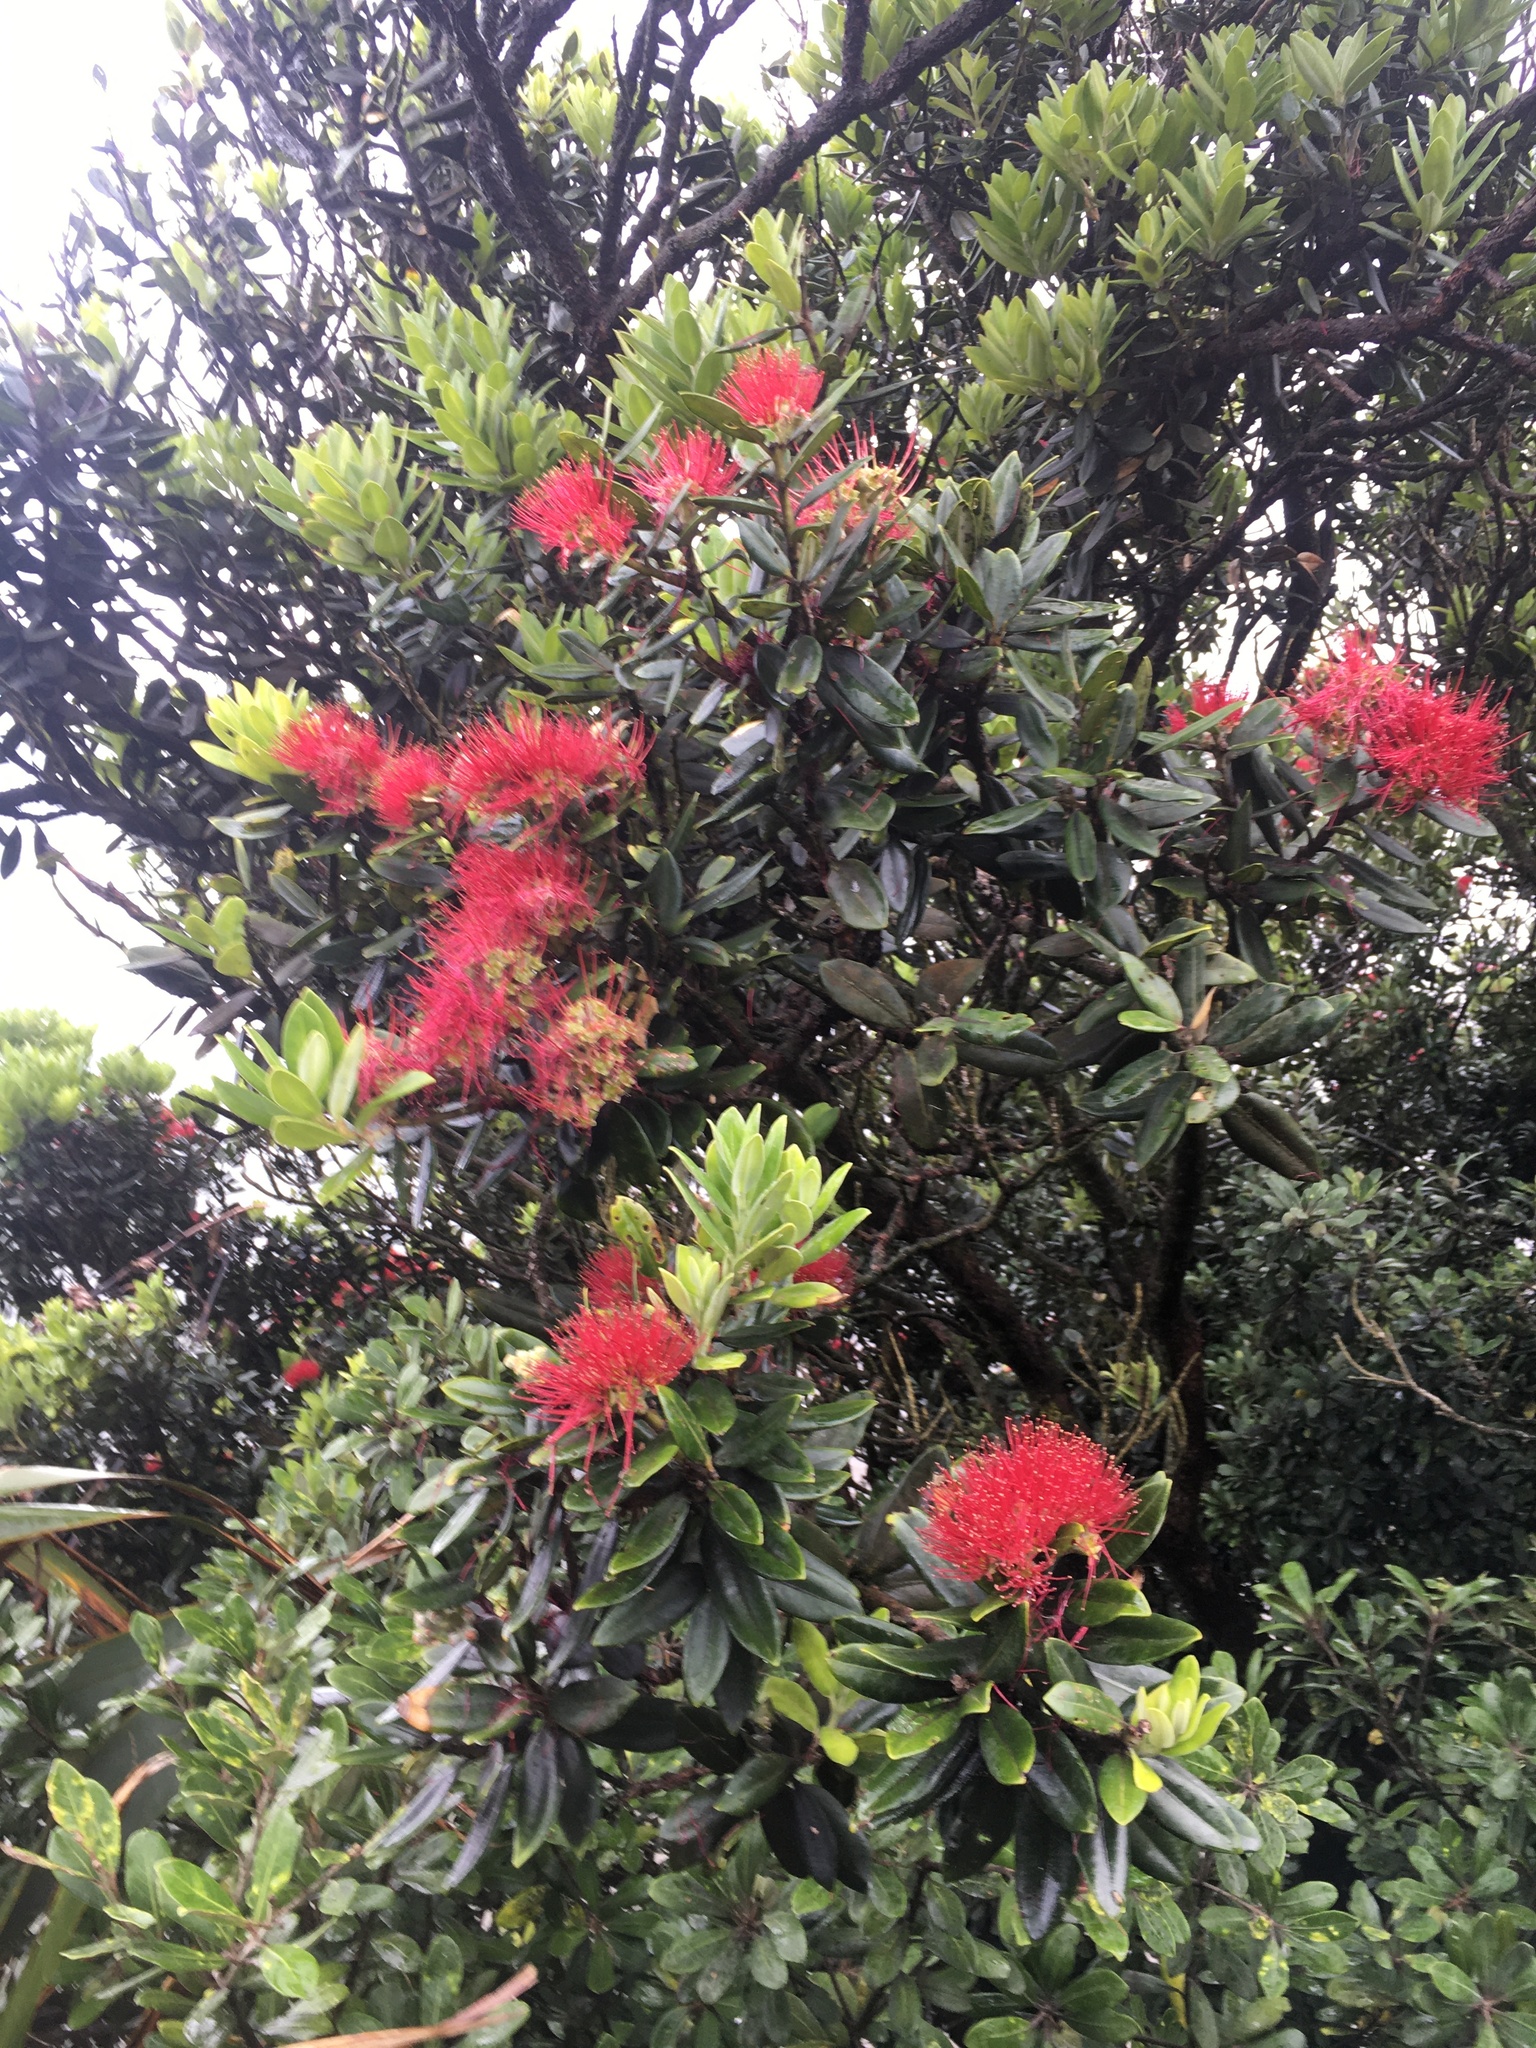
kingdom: Plantae
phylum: Tracheophyta
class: Magnoliopsida
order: Myrtales
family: Myrtaceae
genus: Metrosideros
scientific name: Metrosideros excelsa
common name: New zealand christmastree
